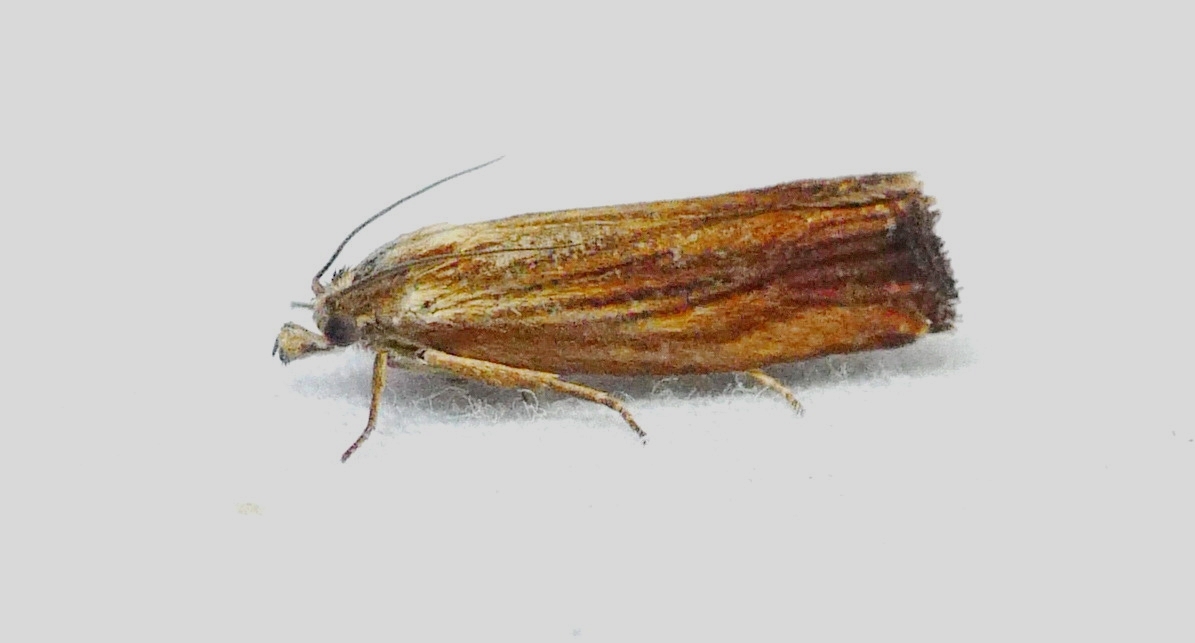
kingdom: Animalia
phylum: Arthropoda
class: Insecta
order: Lepidoptera
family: Tortricidae
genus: Eucosma
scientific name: Eucosma radiatana
